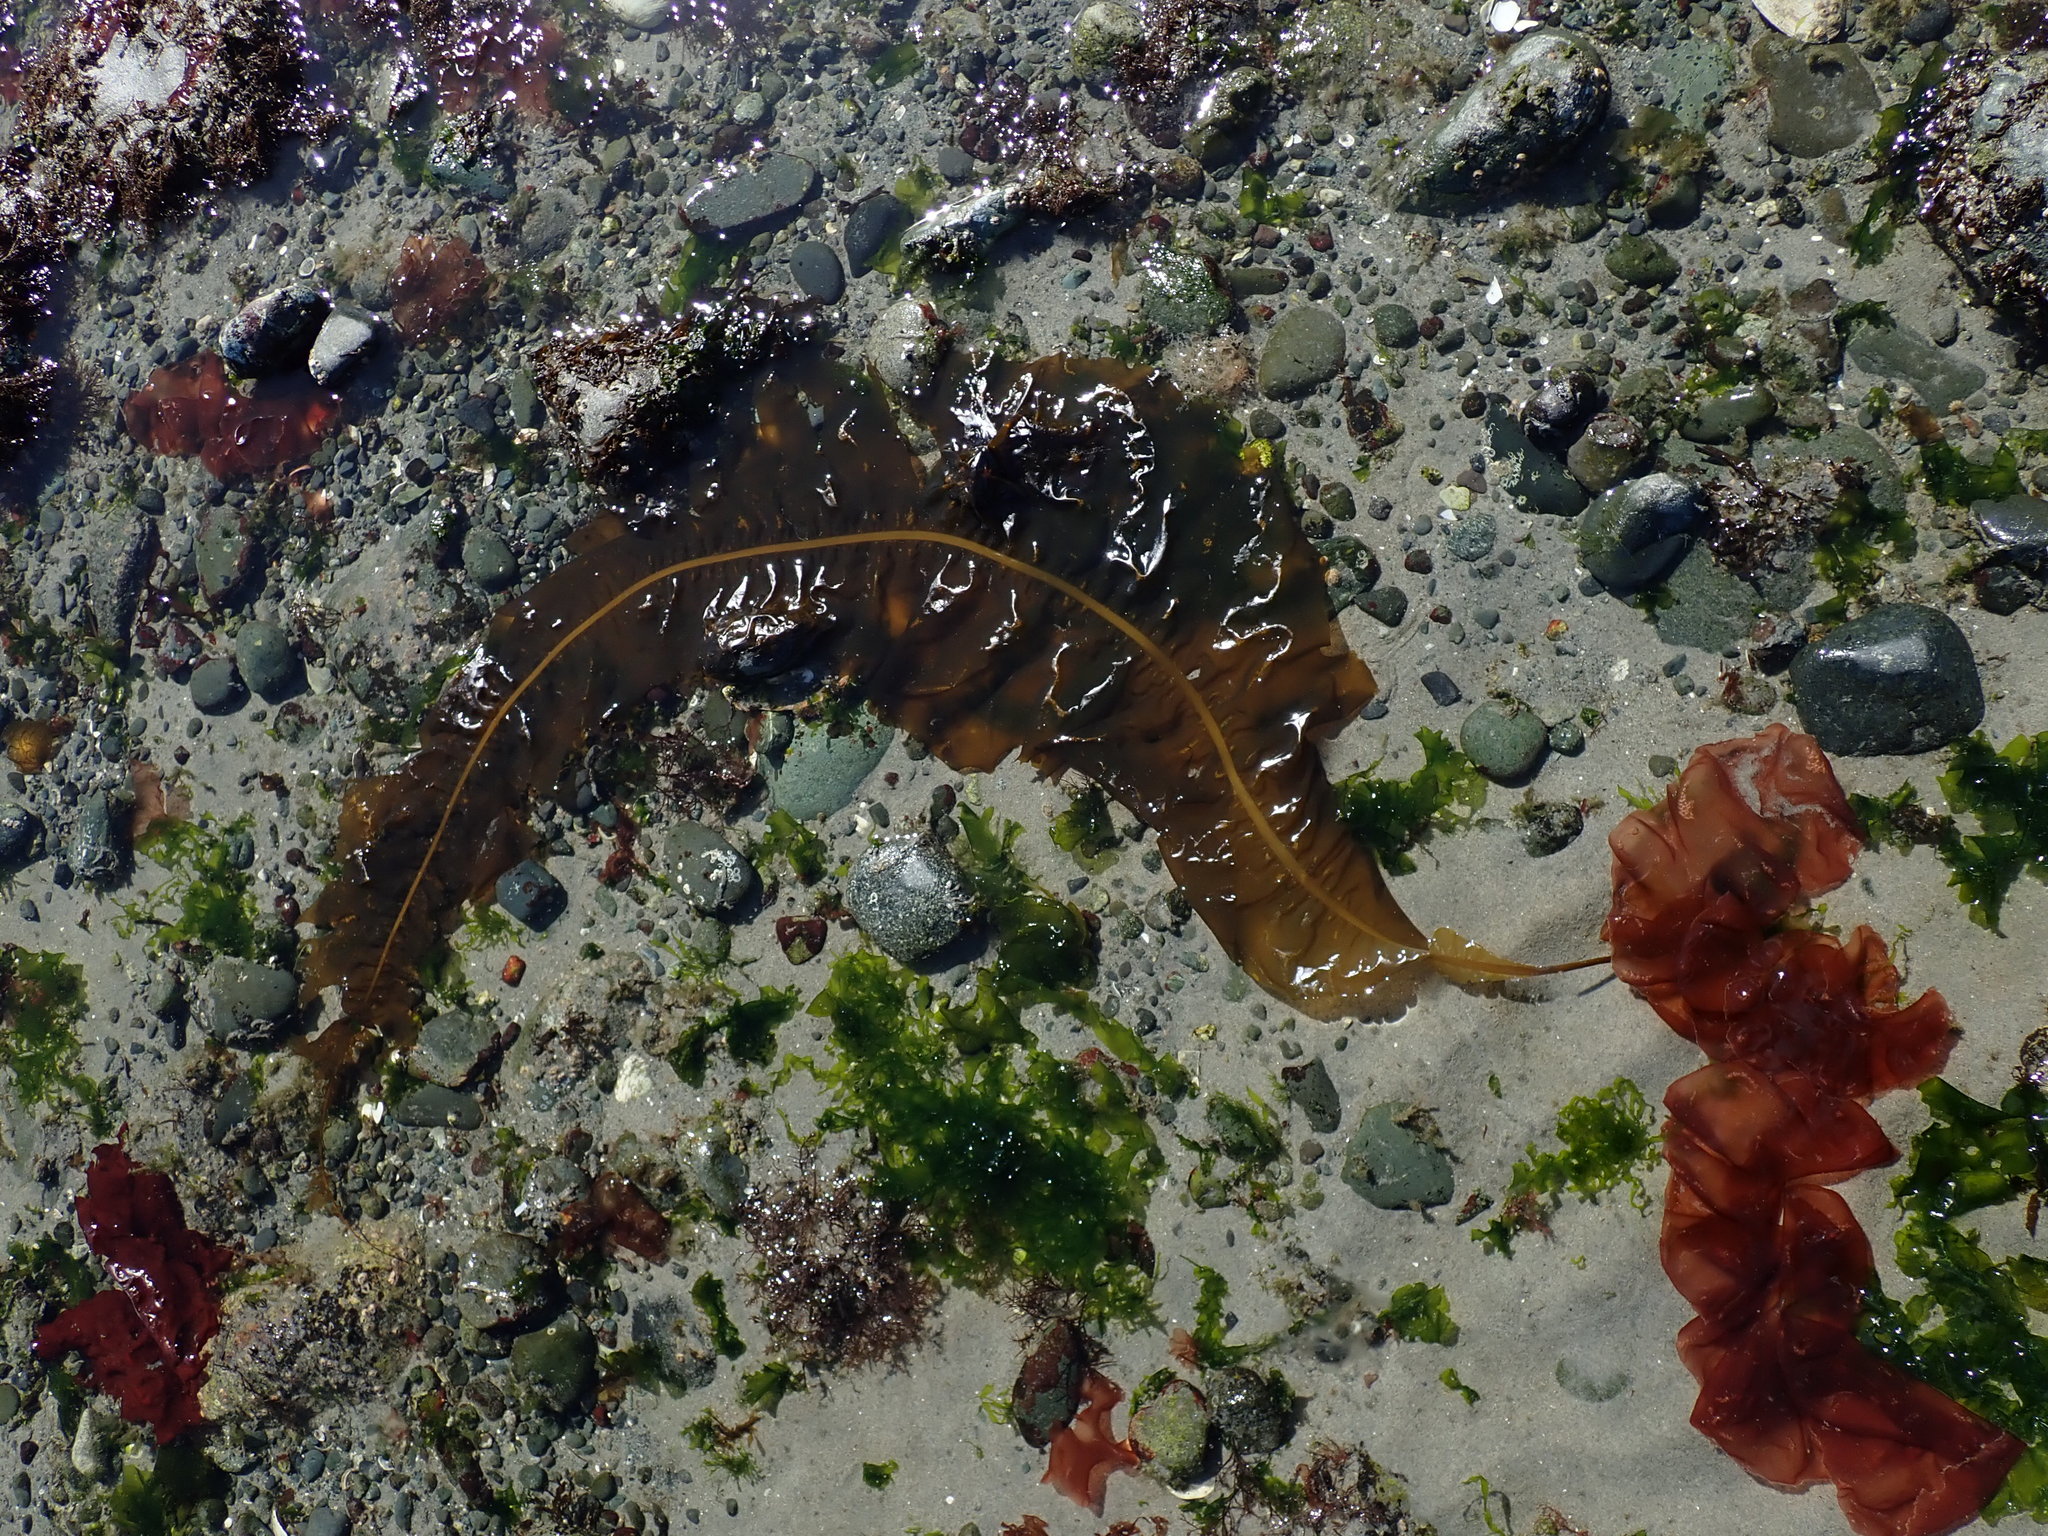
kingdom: Chromista
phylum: Ochrophyta
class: Phaeophyceae
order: Laminariales
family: Alariaceae
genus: Alaria
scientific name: Alaria marginata
